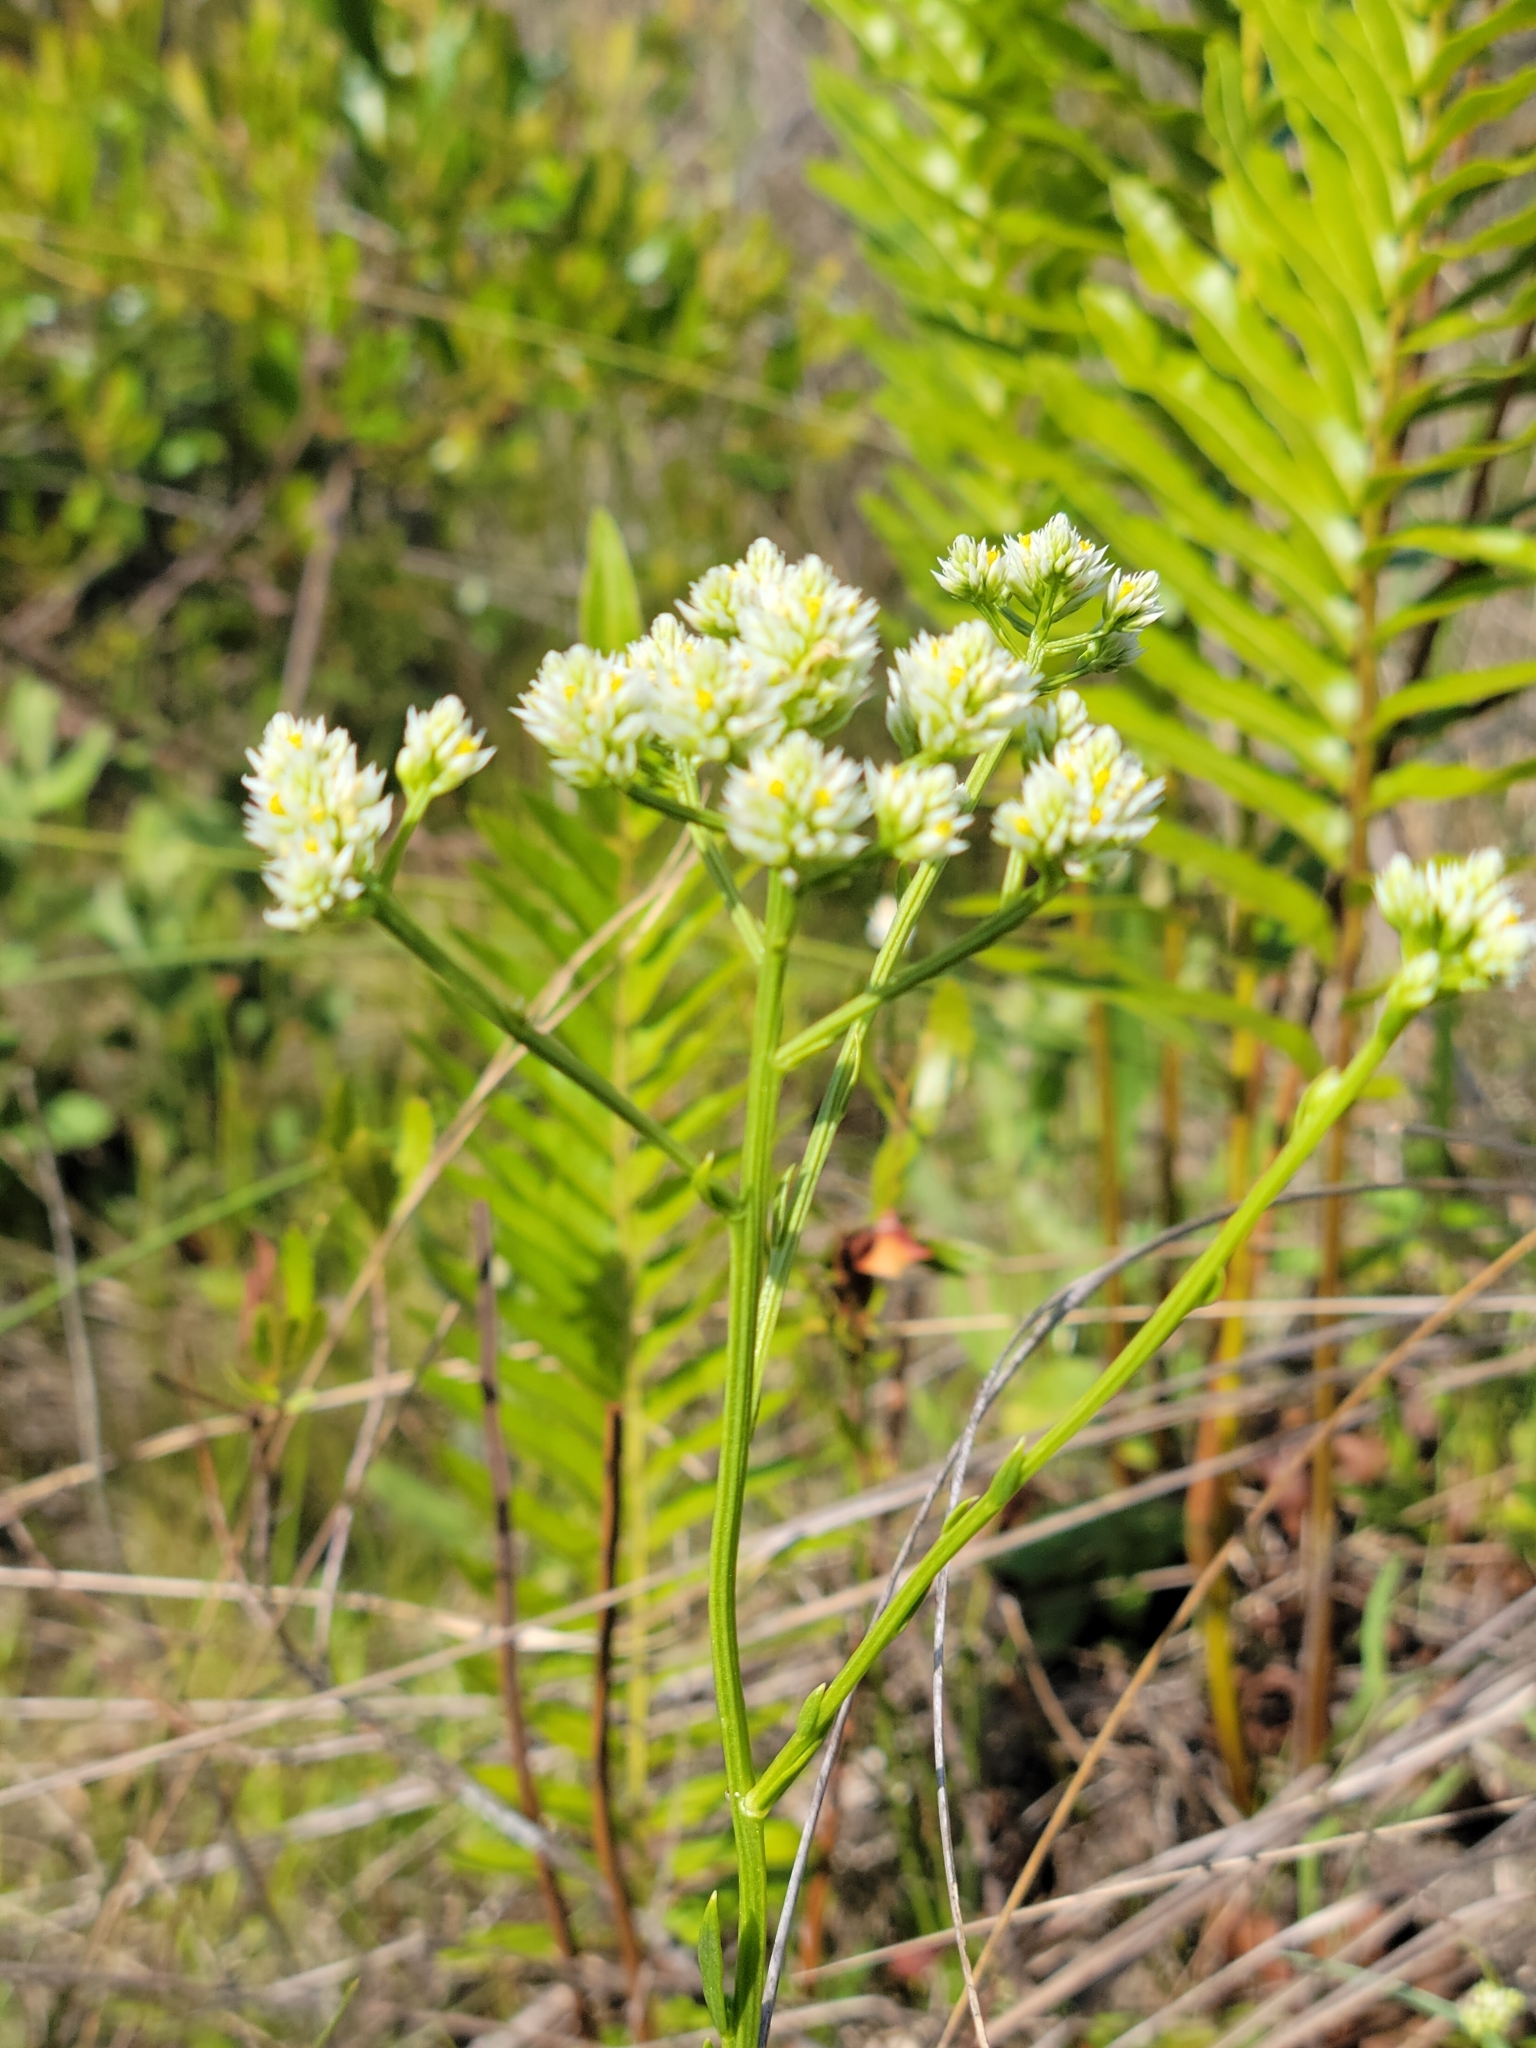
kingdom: Plantae
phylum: Tracheophyta
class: Magnoliopsida
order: Fabales
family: Polygalaceae
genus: Polygala
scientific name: Polygala baldwinii
